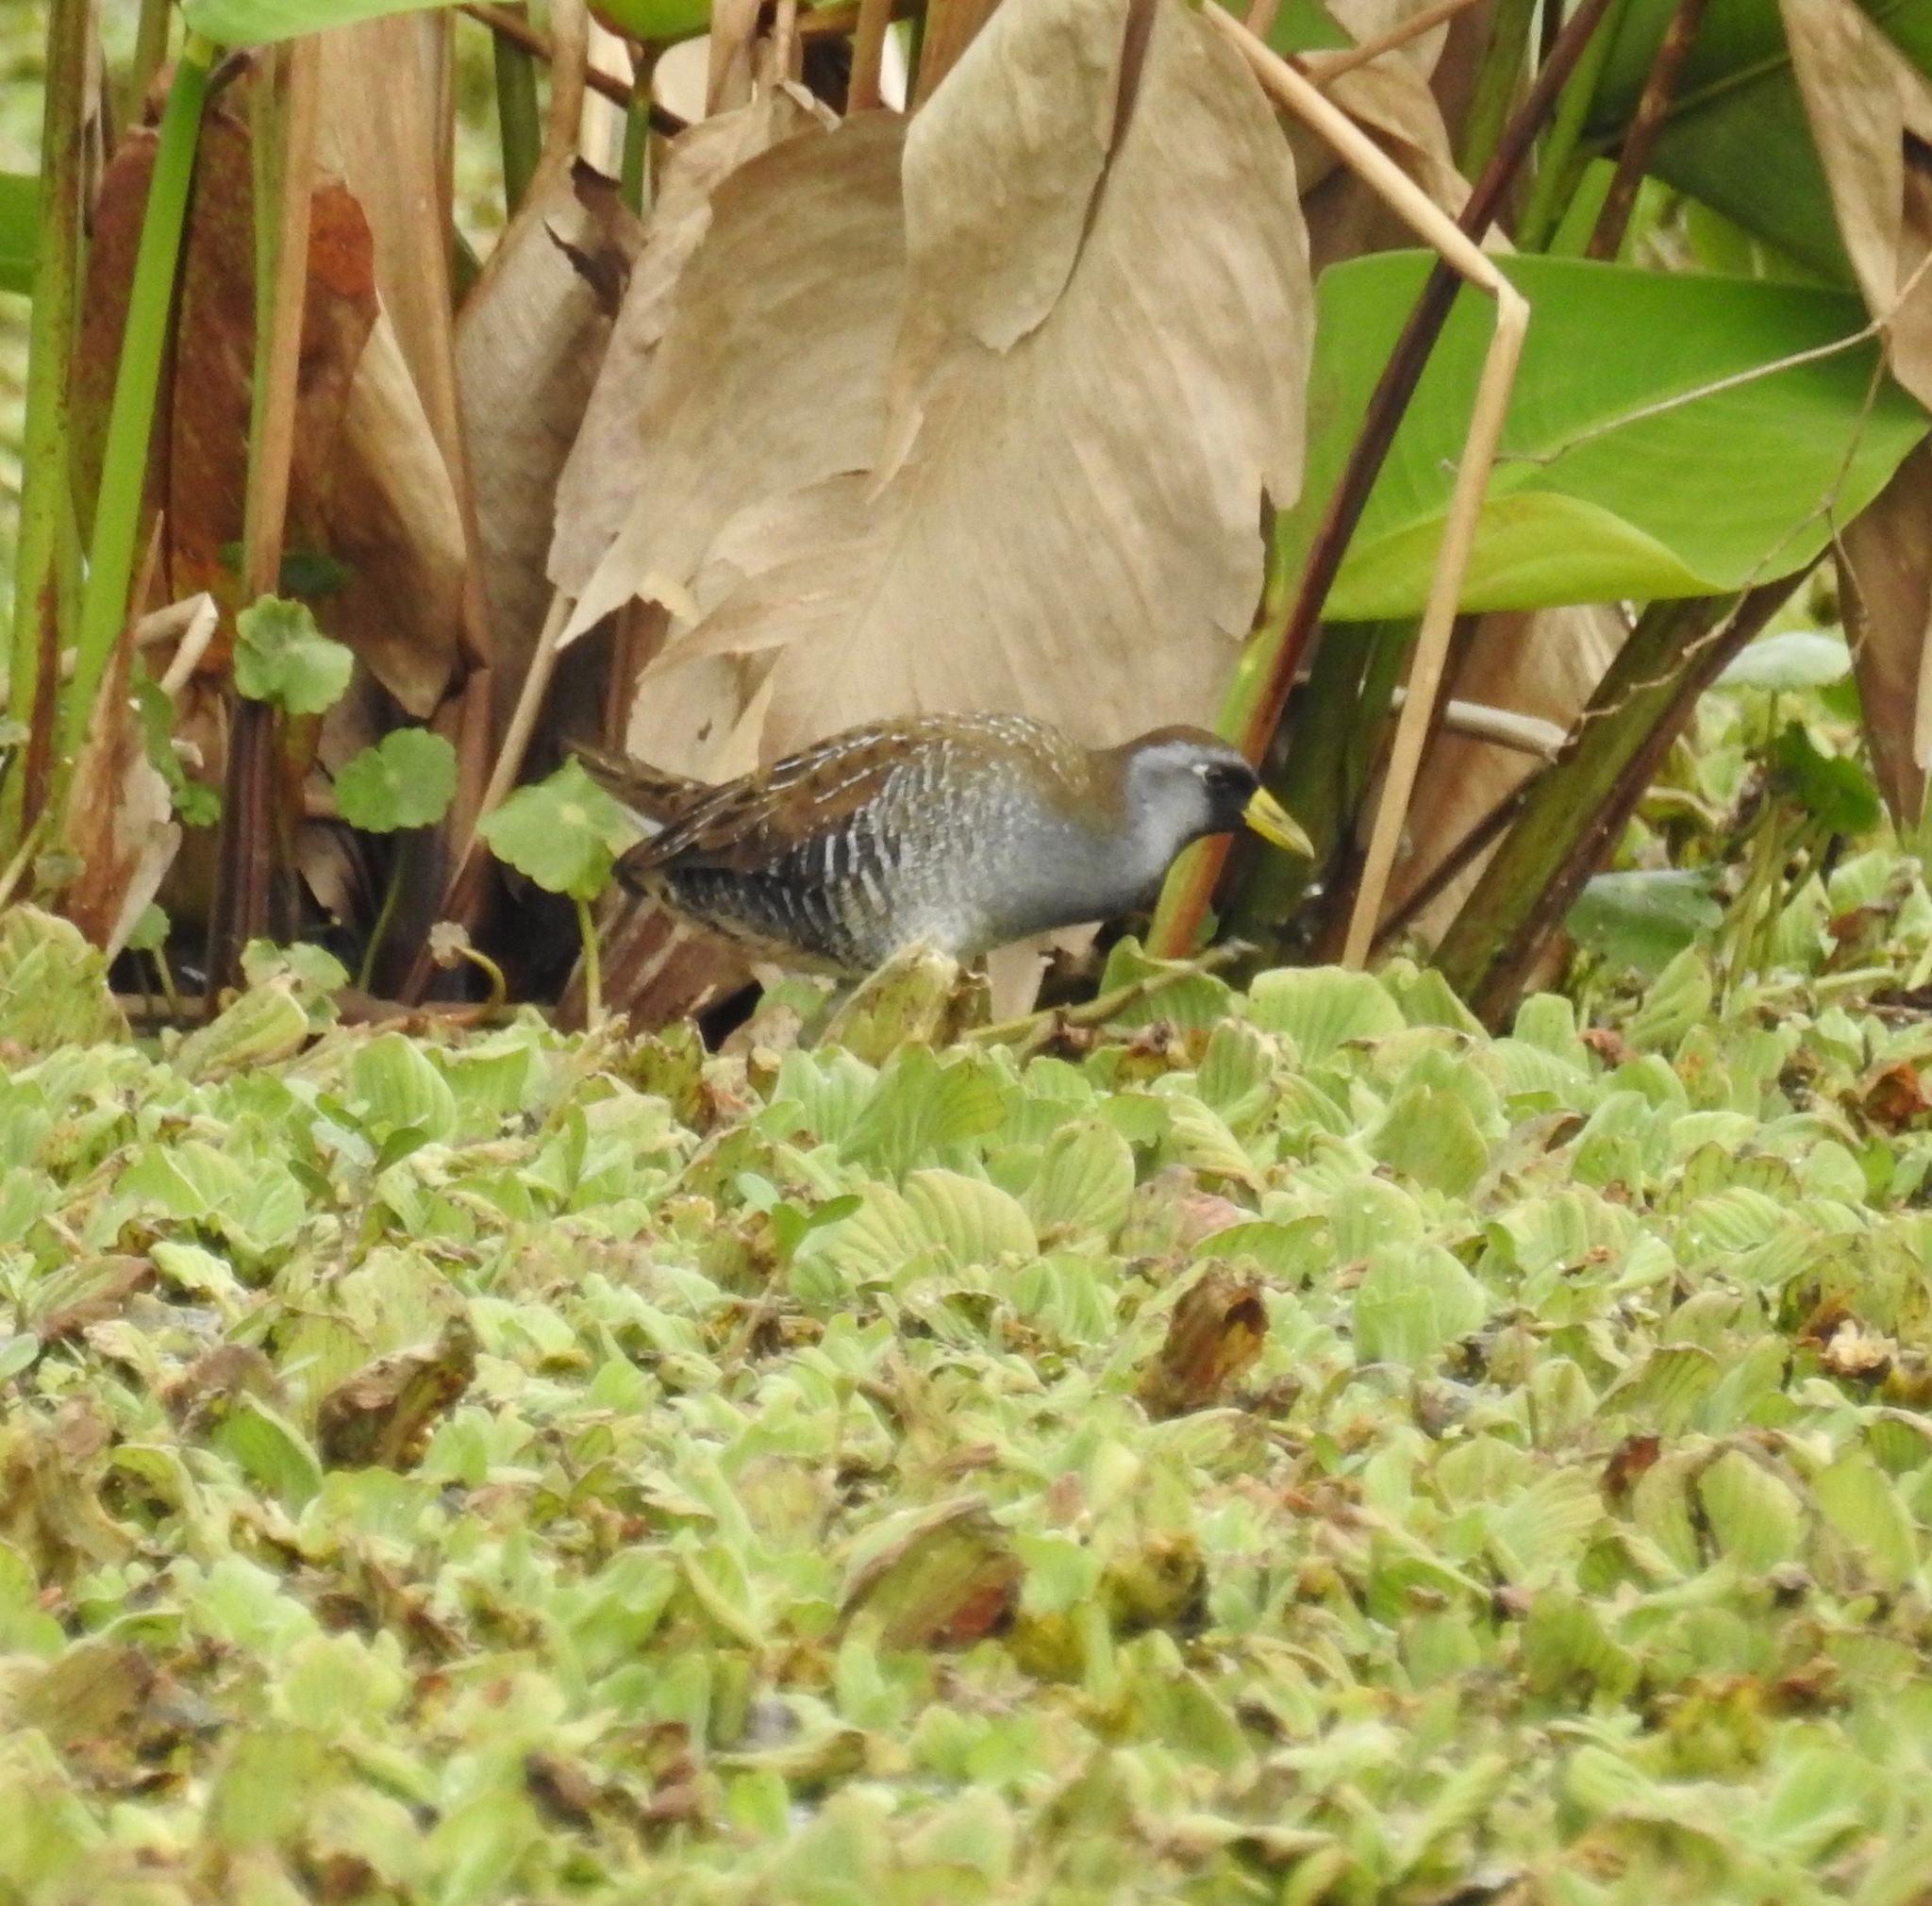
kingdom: Animalia
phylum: Chordata
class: Aves
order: Gruiformes
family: Rallidae
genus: Porzana
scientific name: Porzana carolina
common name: Sora
